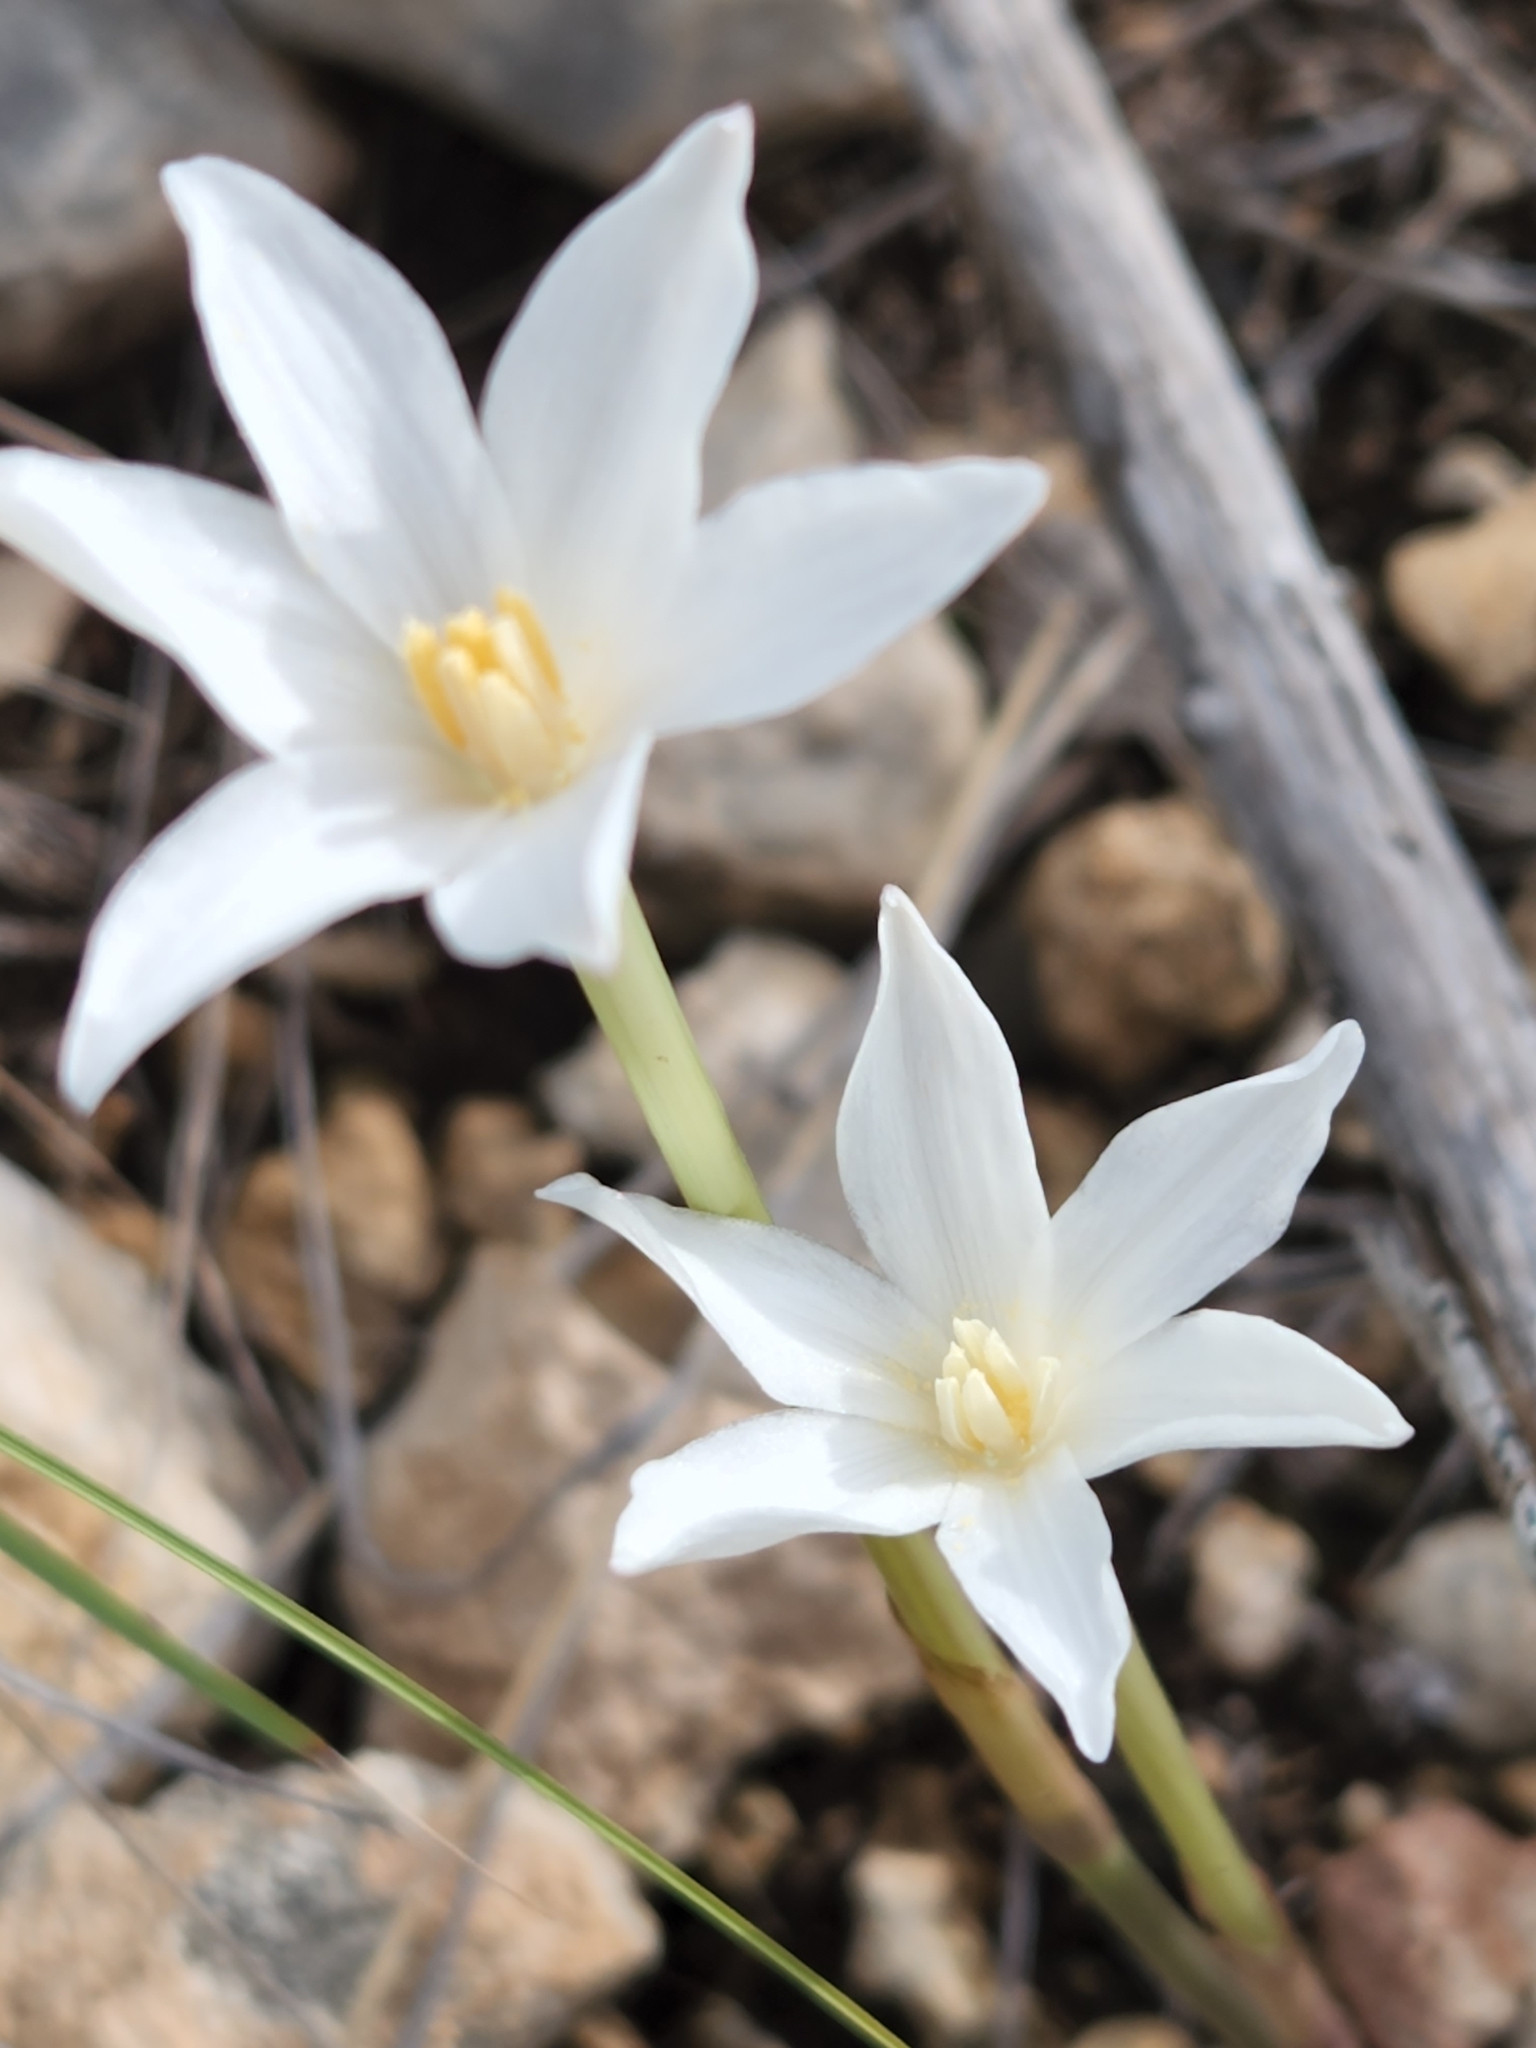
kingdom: Plantae
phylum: Tracheophyta
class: Liliopsida
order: Asparagales
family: Amaryllidaceae
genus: Zephyranthes
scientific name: Zephyranthes chlorosolen
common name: Evening rain-lily
